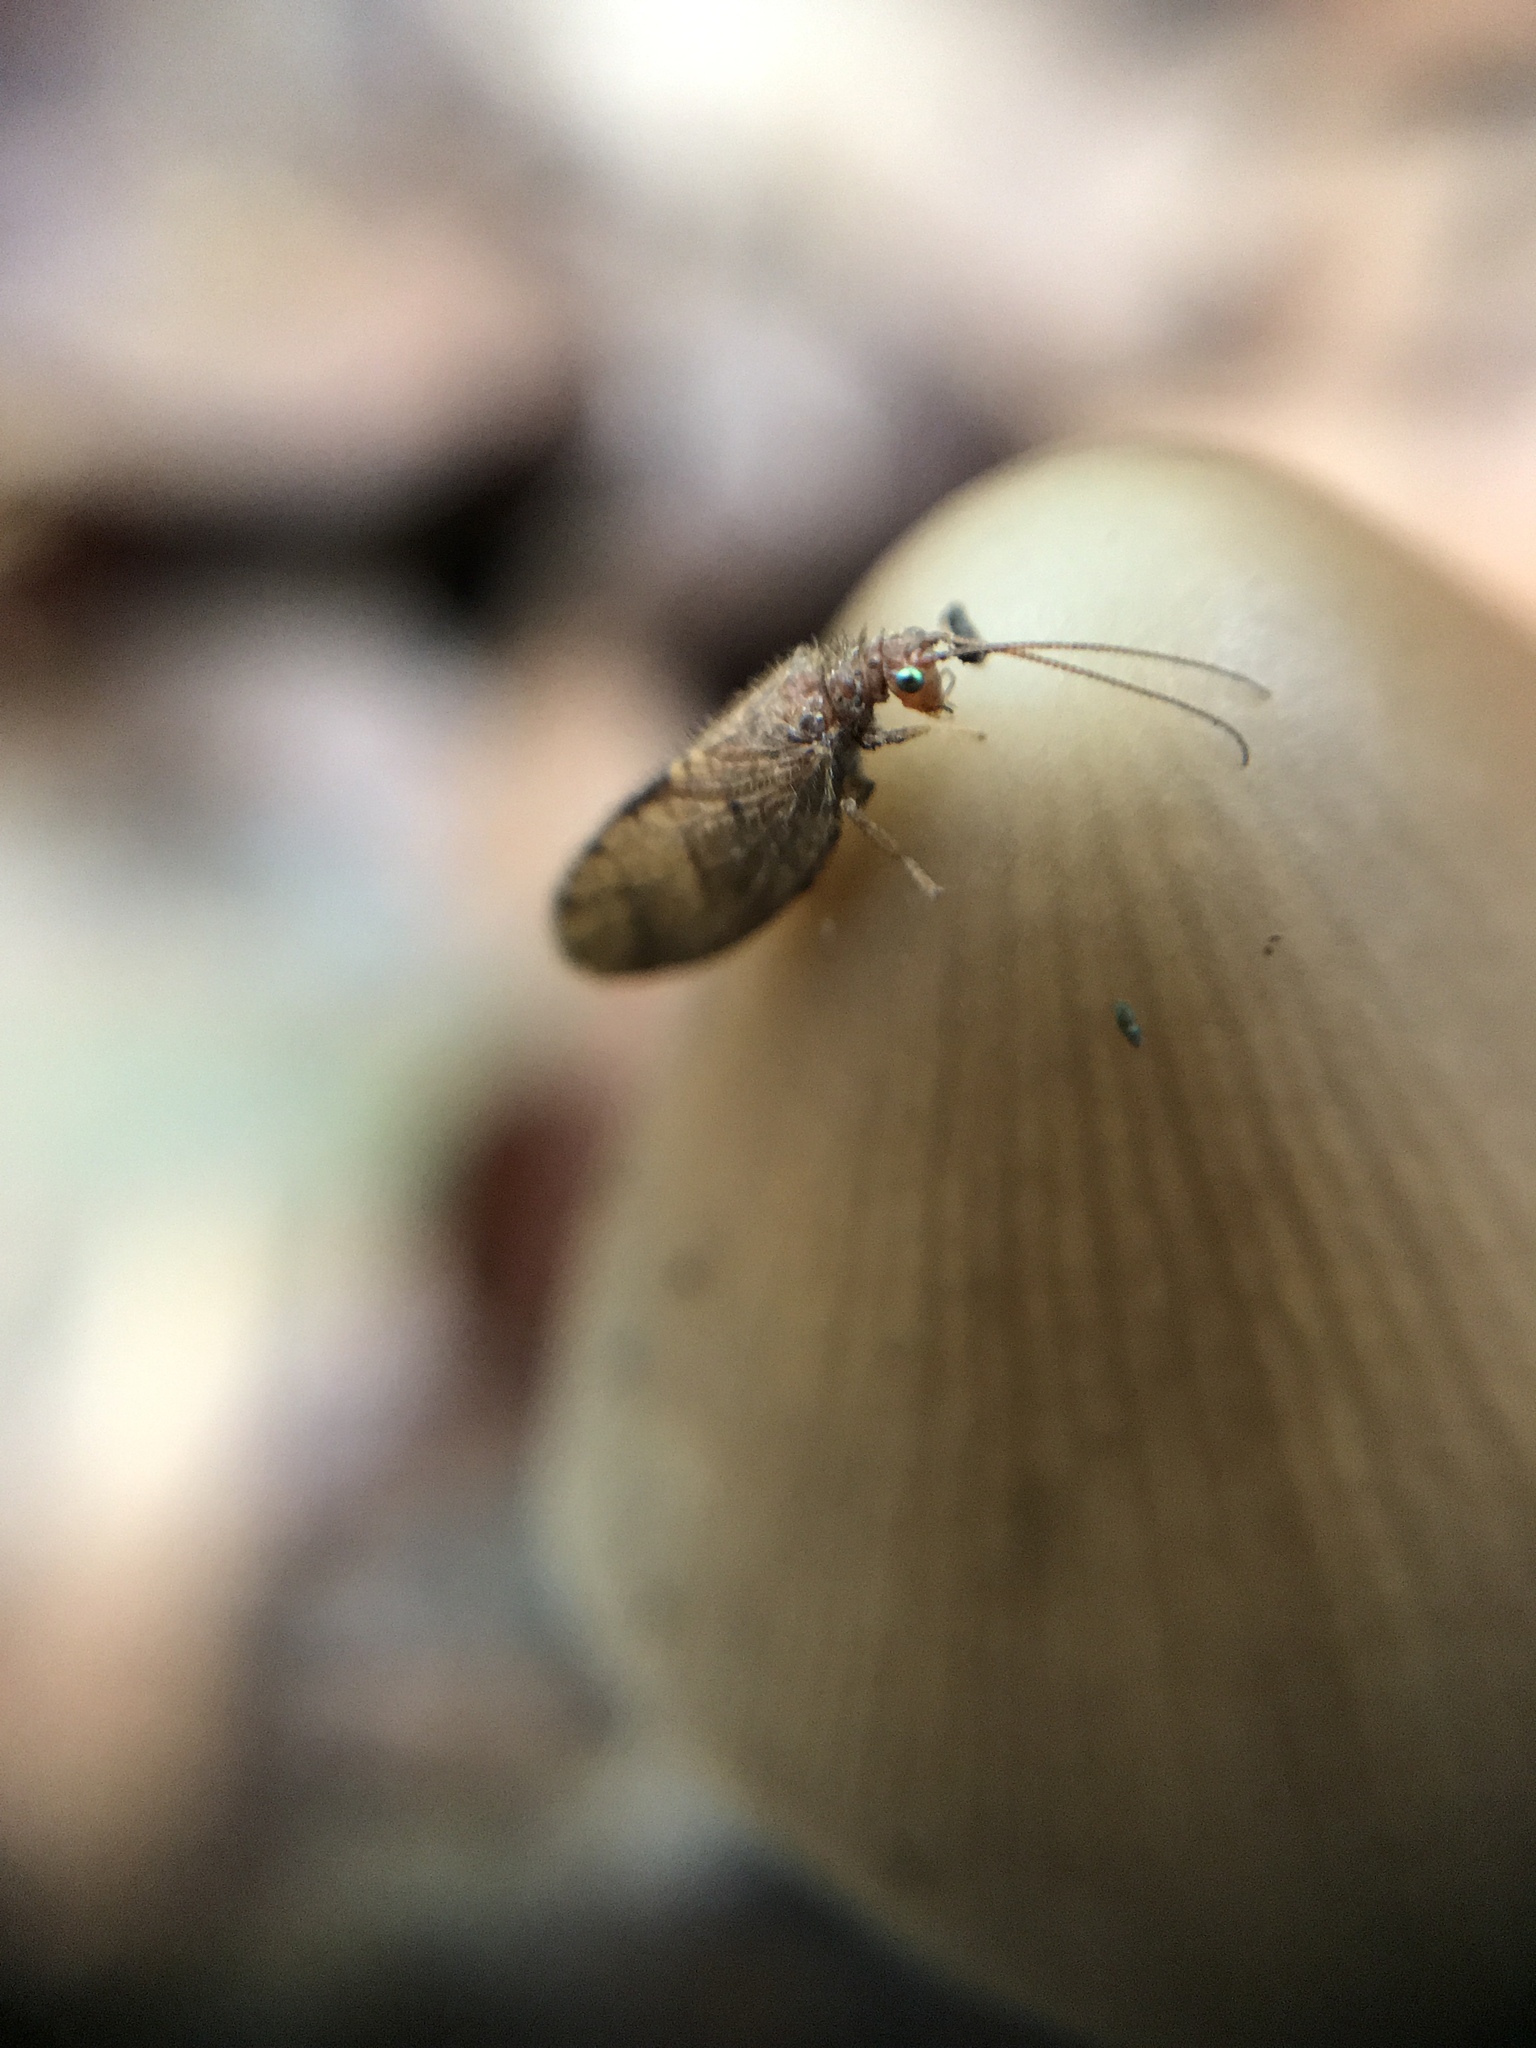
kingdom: Animalia
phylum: Arthropoda
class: Insecta
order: Neuroptera
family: Hemerobiidae
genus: Micromus
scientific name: Micromus angulatus
